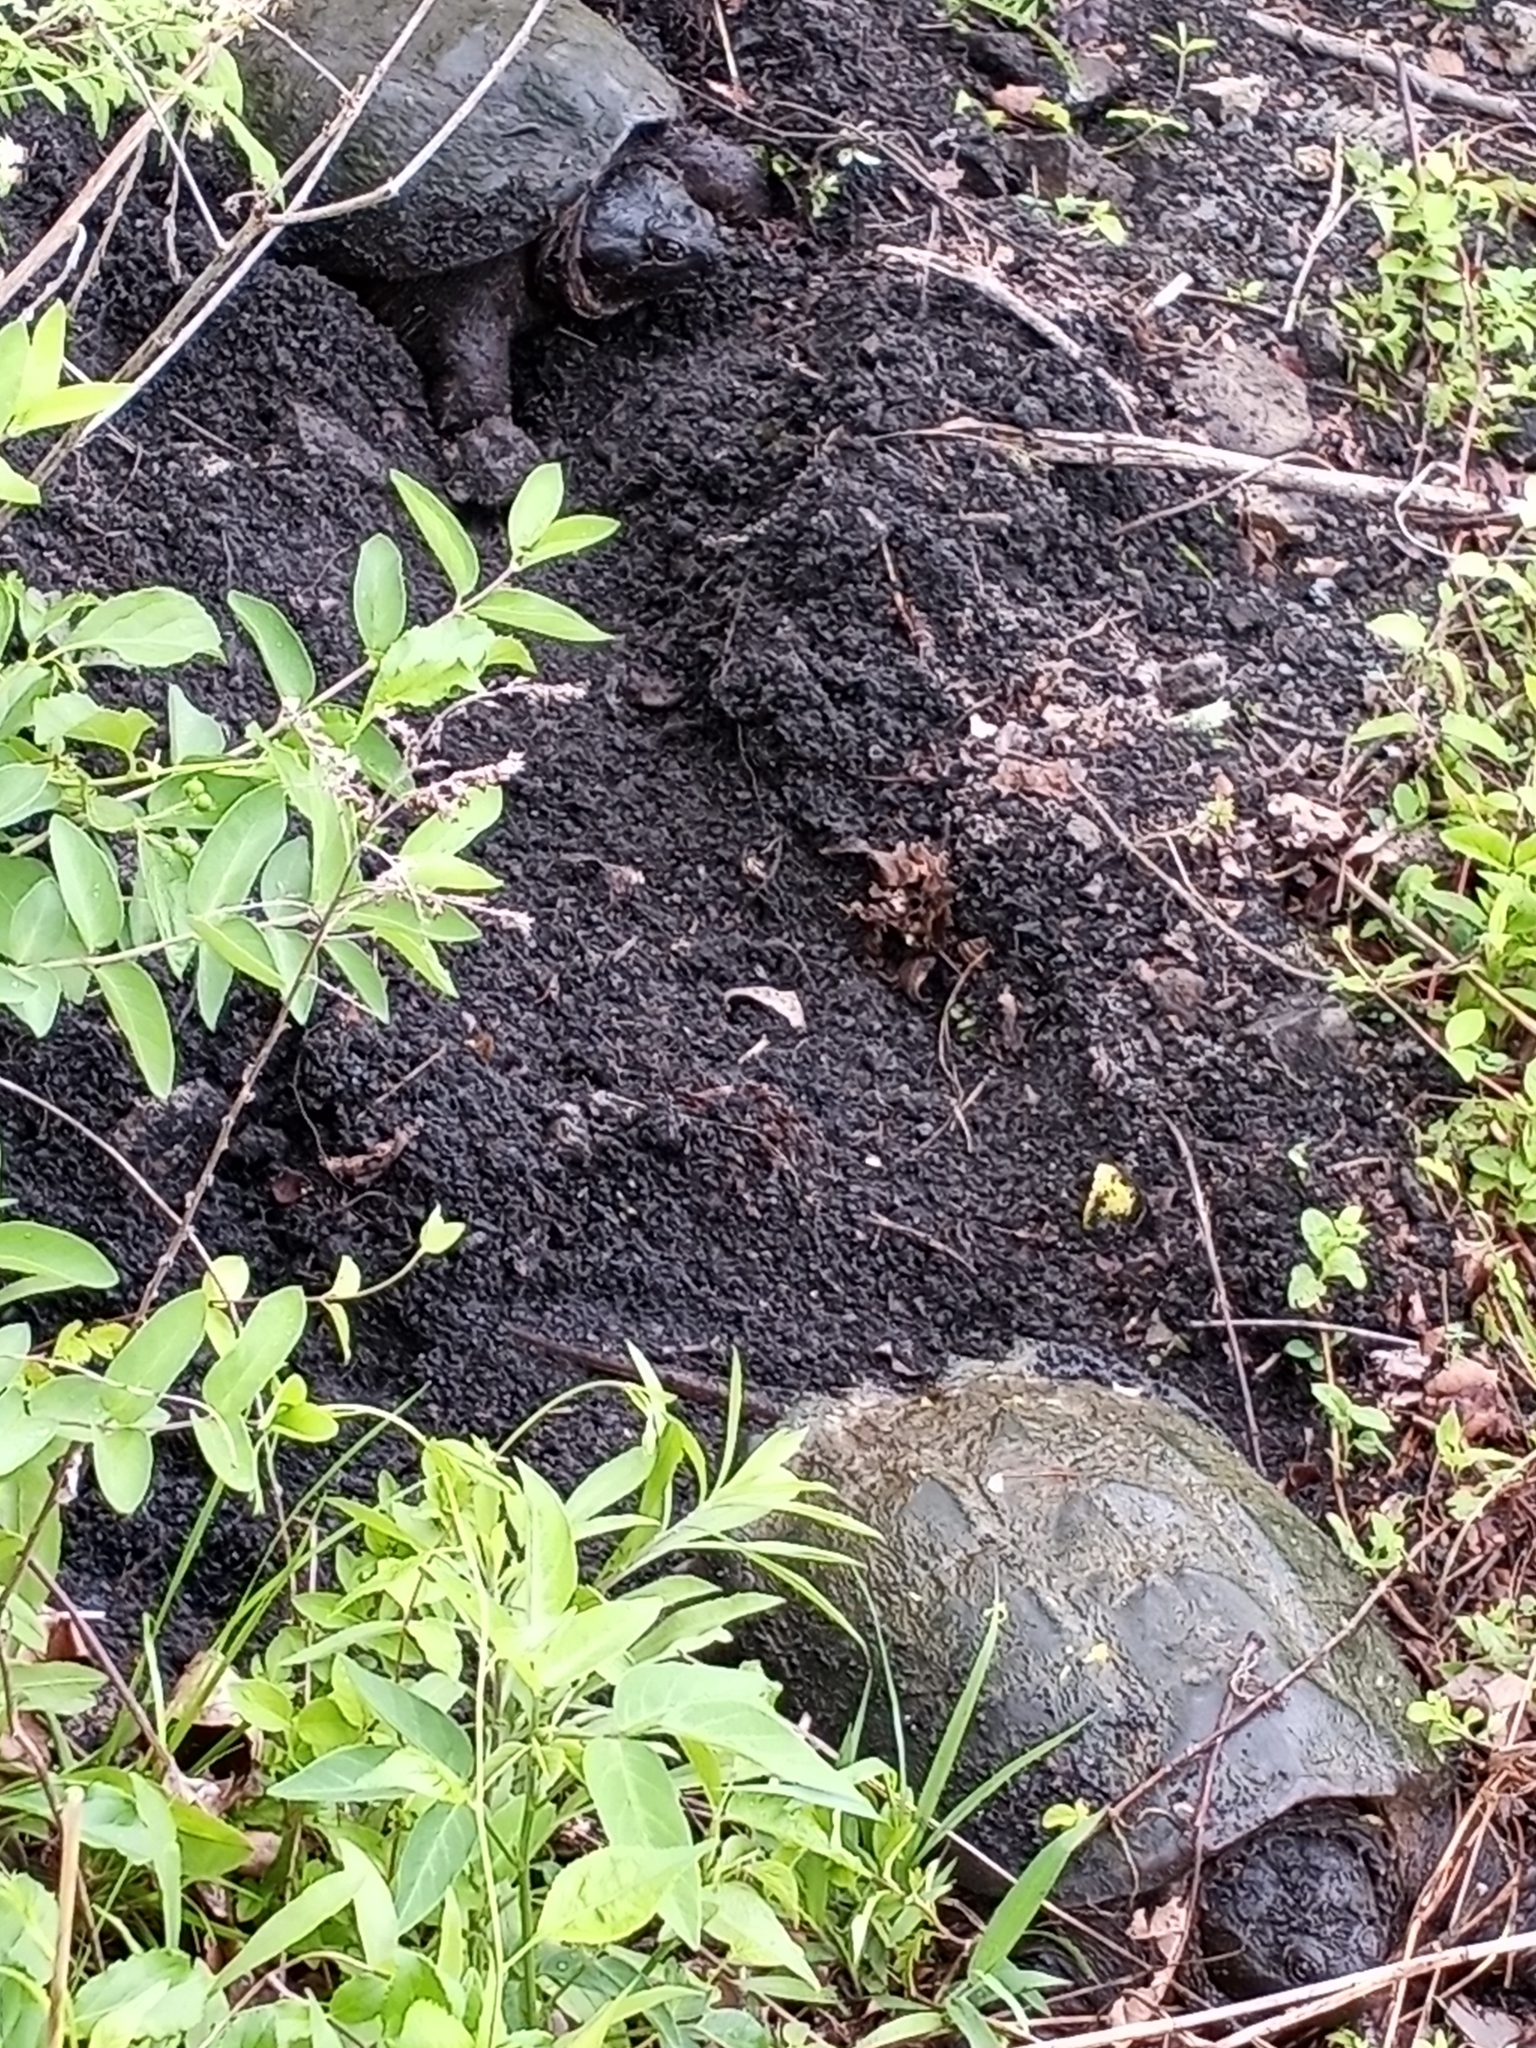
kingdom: Animalia
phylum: Chordata
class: Testudines
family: Chelydridae
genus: Chelydra
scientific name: Chelydra serpentina
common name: Common snapping turtle
